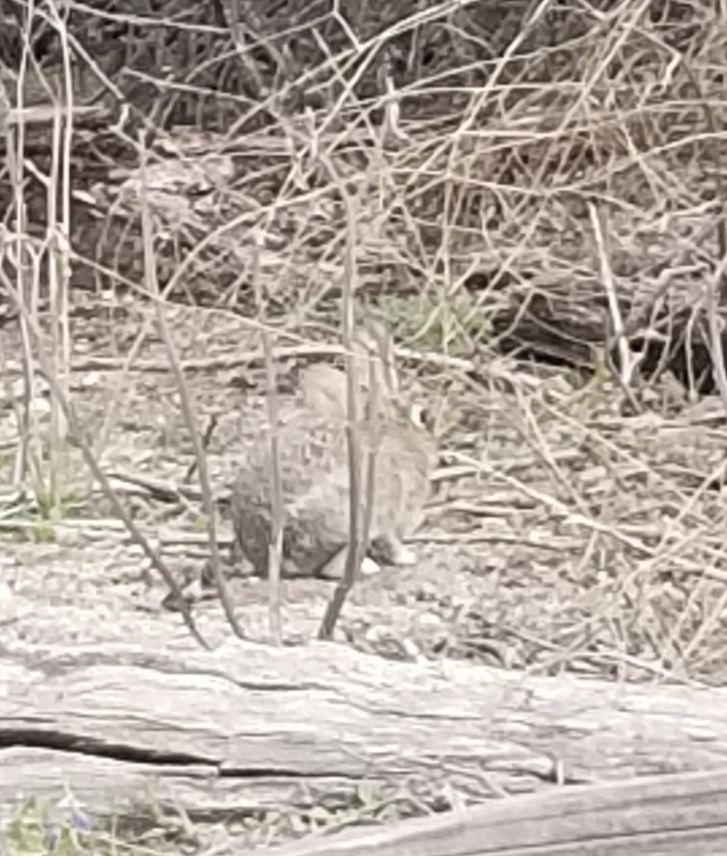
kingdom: Animalia
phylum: Chordata
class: Mammalia
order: Lagomorpha
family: Leporidae
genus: Sylvilagus
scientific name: Sylvilagus bachmani
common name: Brush rabbit
